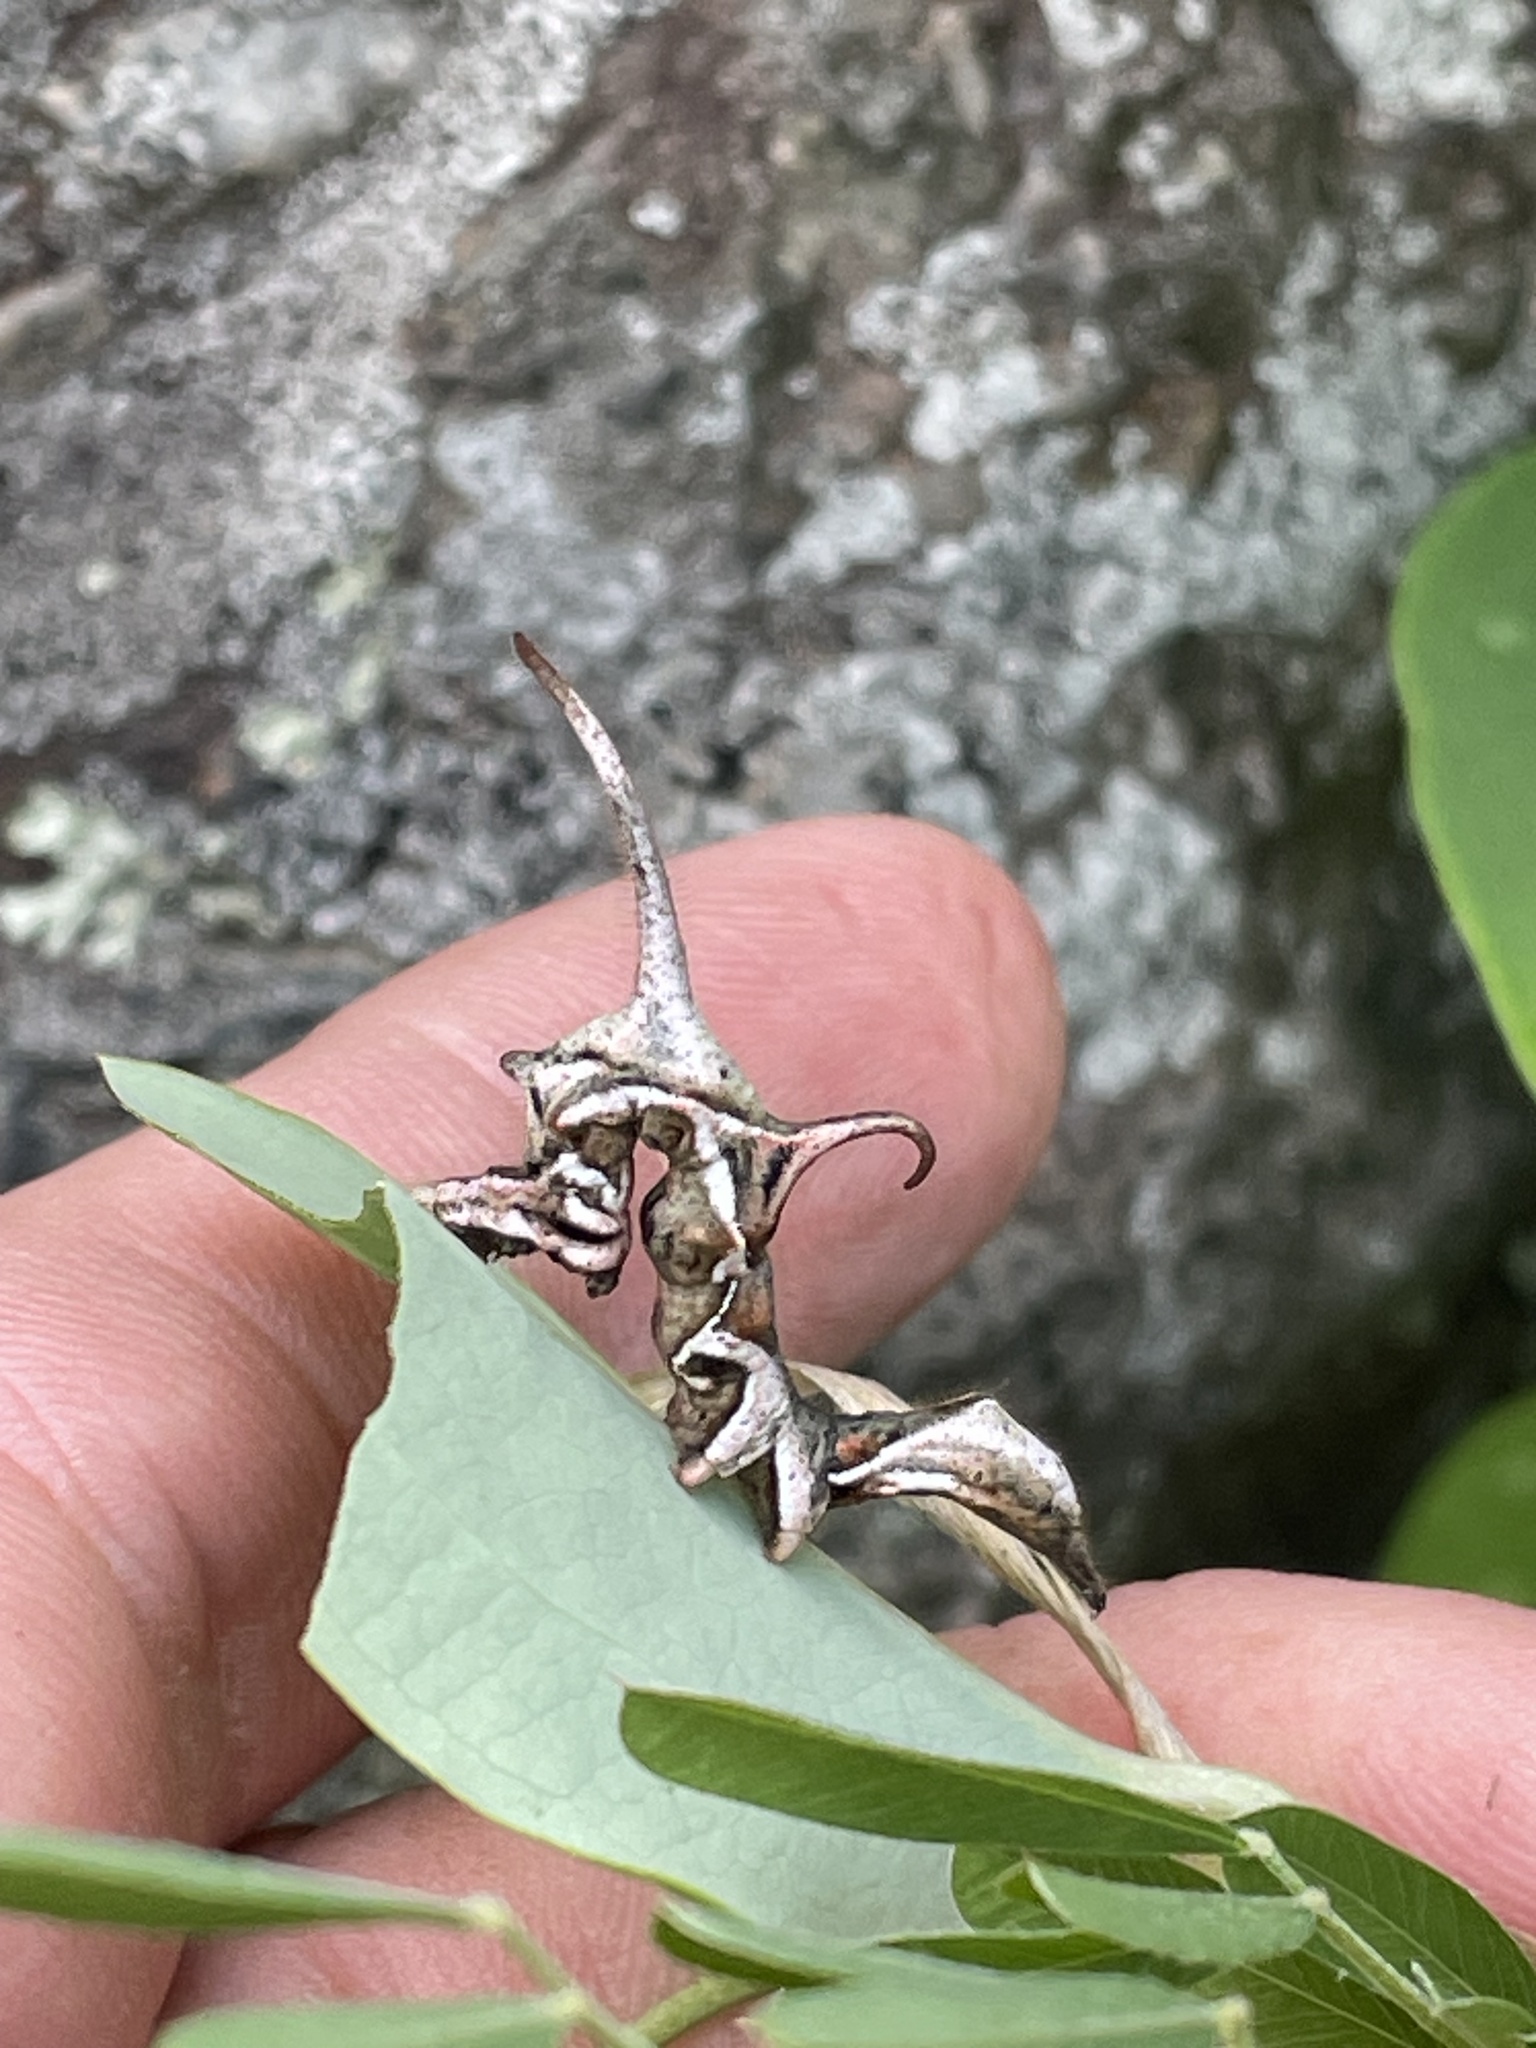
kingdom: Animalia
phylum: Arthropoda
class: Insecta
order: Lepidoptera
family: Erebidae
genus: Phyprosopus
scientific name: Phyprosopus callitrichoides
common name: Curved-lined owlet
